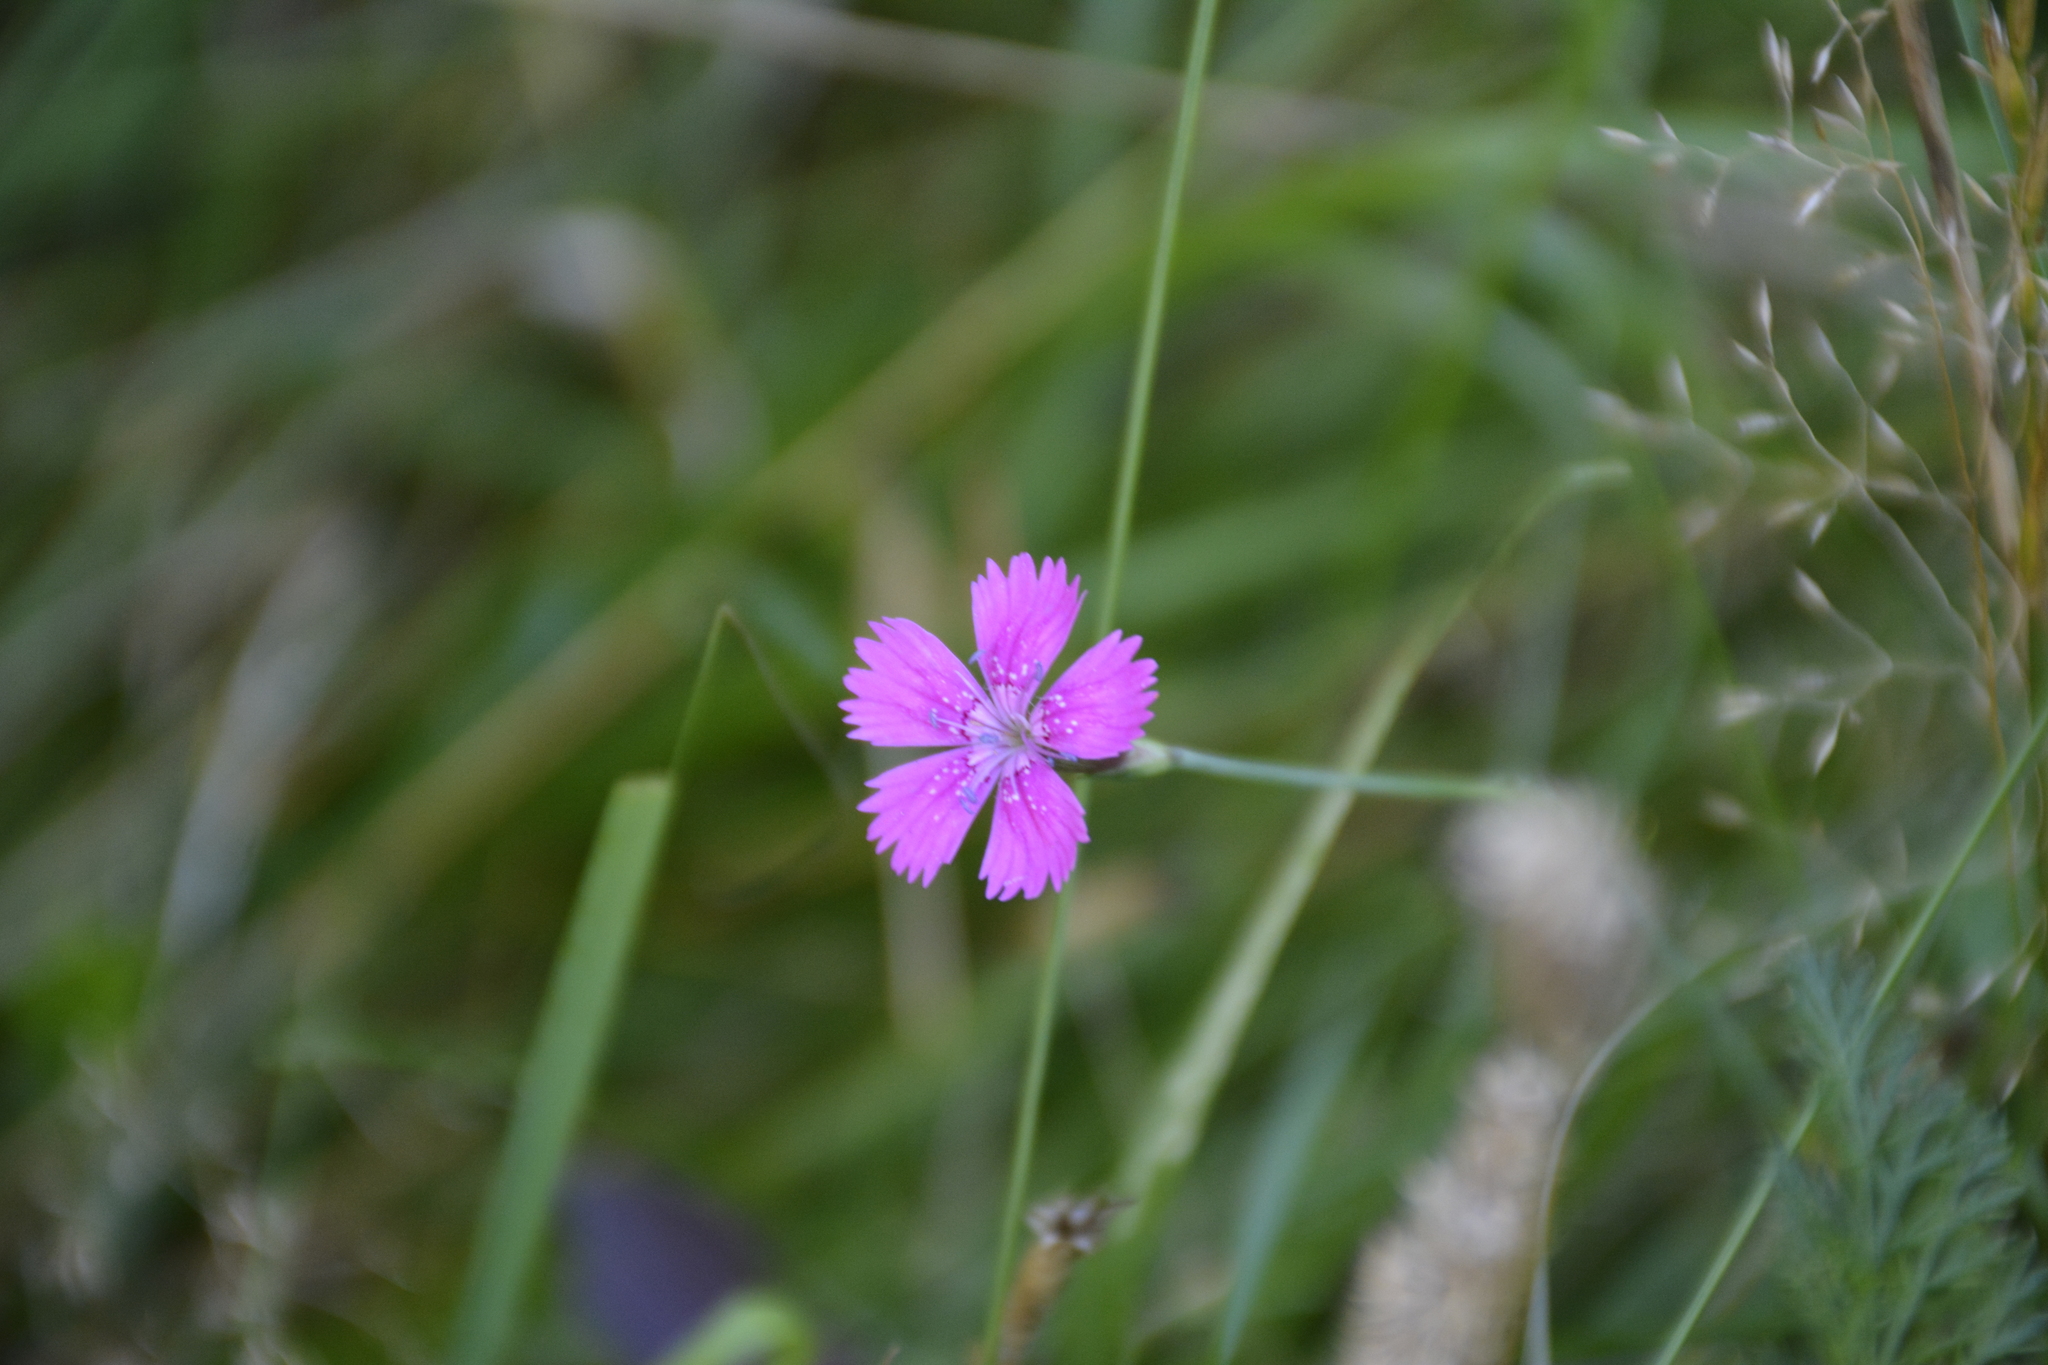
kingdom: Plantae
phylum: Tracheophyta
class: Magnoliopsida
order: Caryophyllales
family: Caryophyllaceae
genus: Dianthus
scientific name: Dianthus deltoides
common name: Maiden pink
